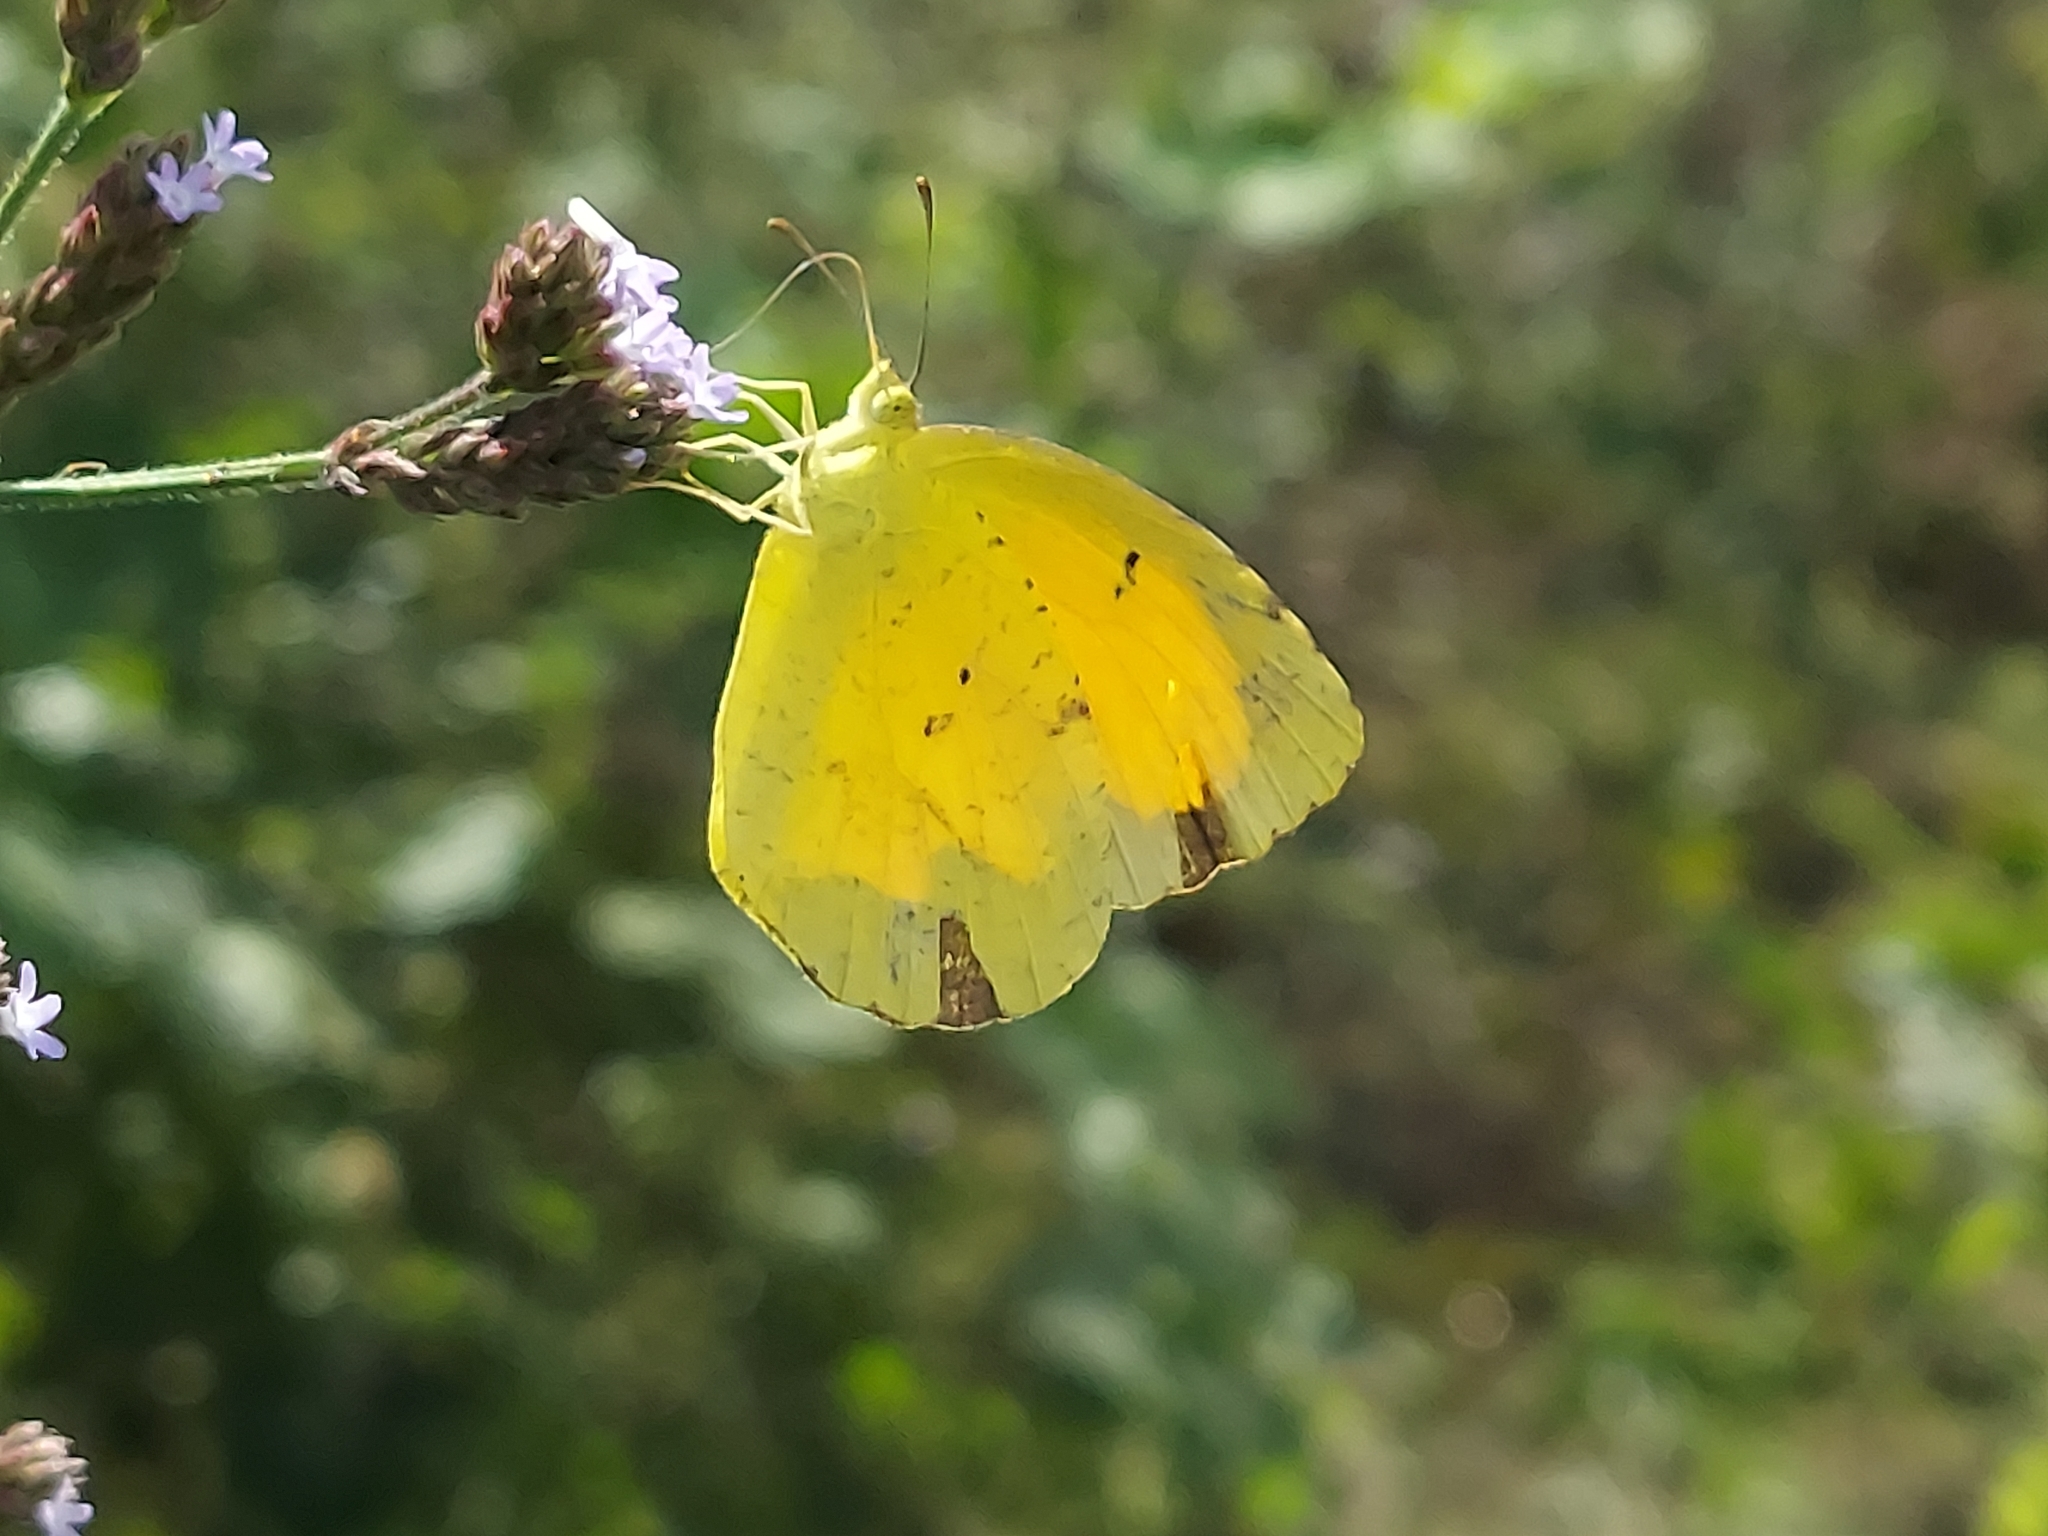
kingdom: Animalia
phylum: Arthropoda
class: Insecta
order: Lepidoptera
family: Pieridae
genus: Abaeis
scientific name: Abaeis nicippe
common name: Sleepy orange
